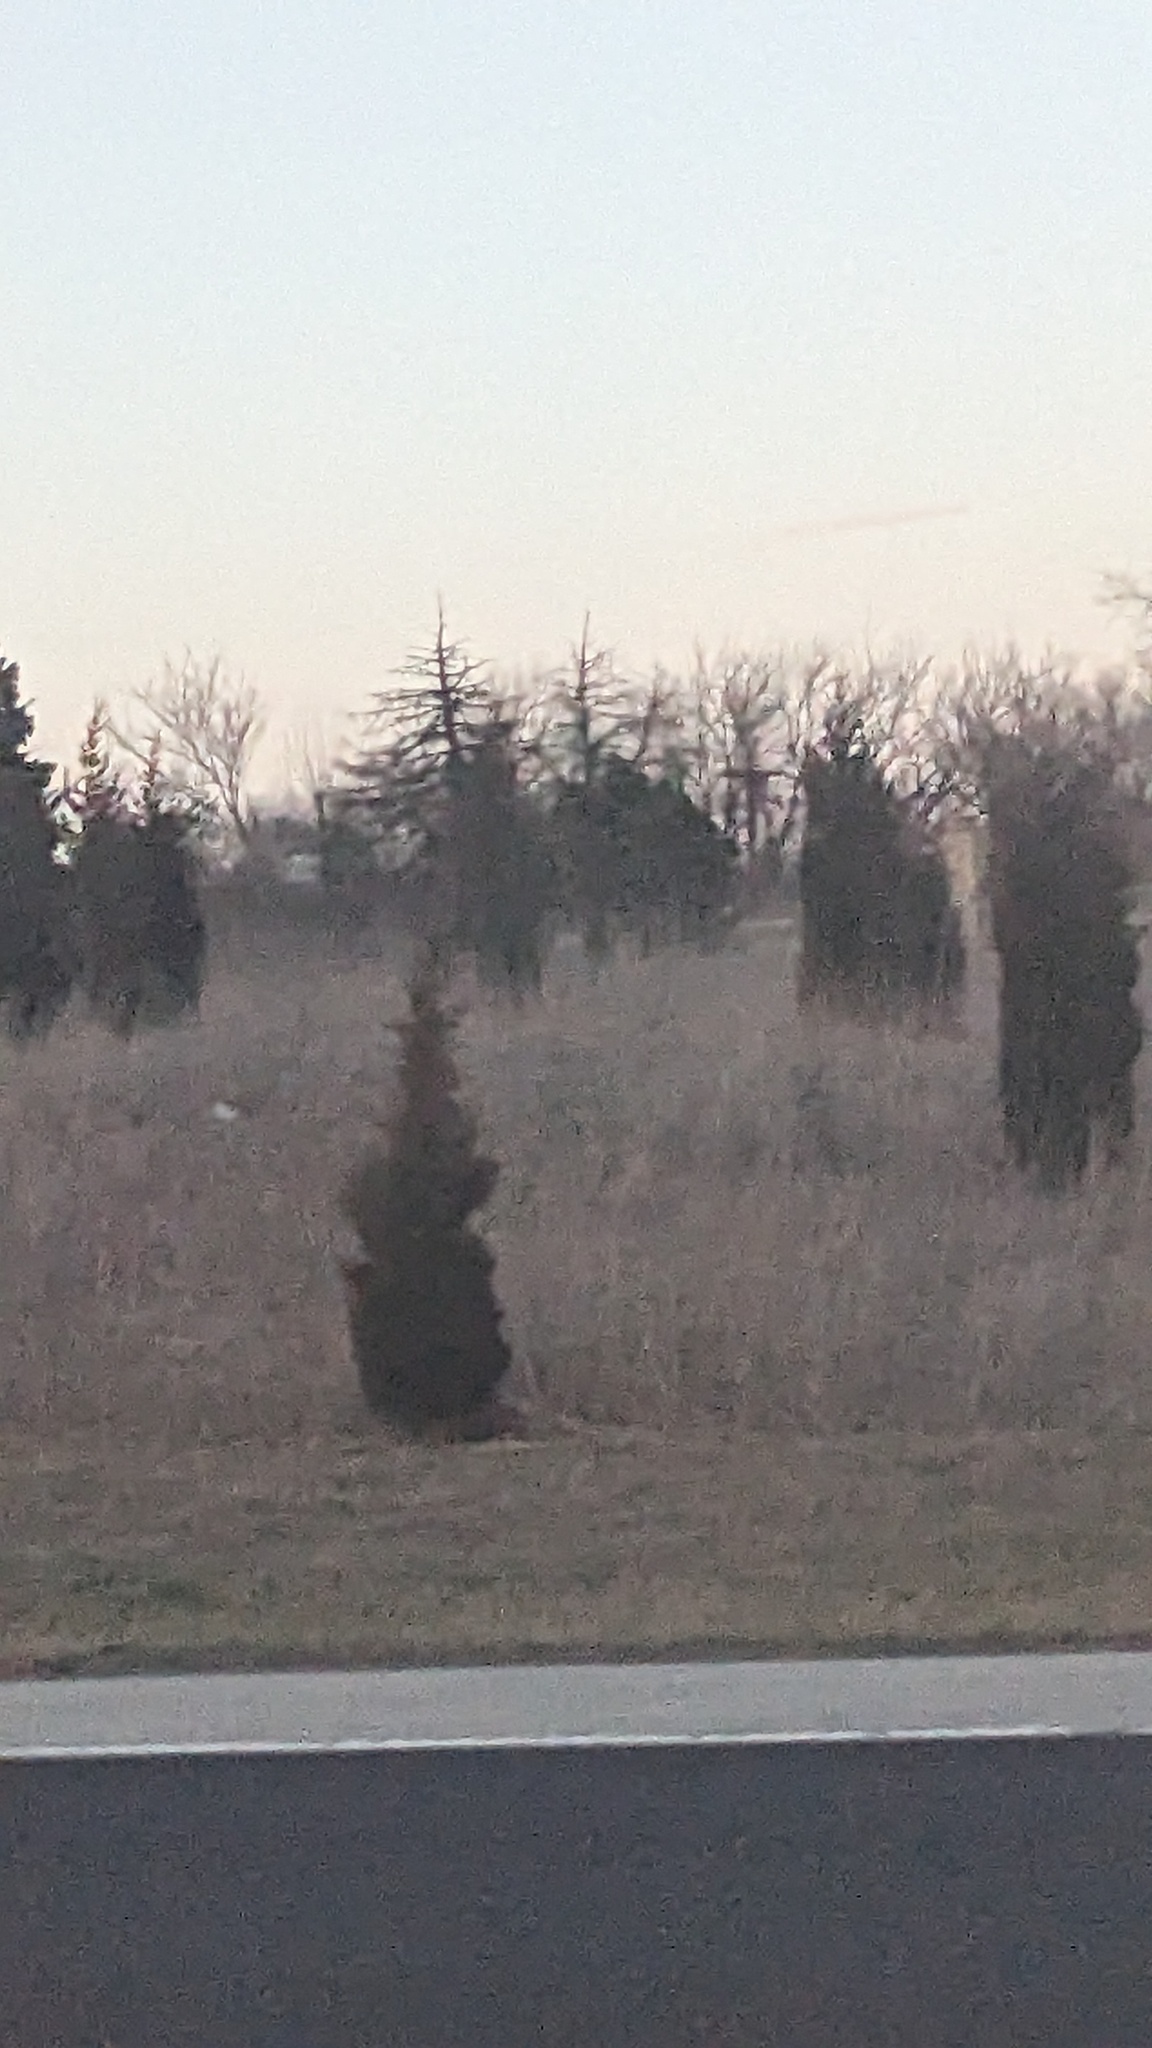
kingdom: Plantae
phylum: Tracheophyta
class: Pinopsida
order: Pinales
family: Cupressaceae
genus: Juniperus
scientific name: Juniperus virginiana
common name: Red juniper
